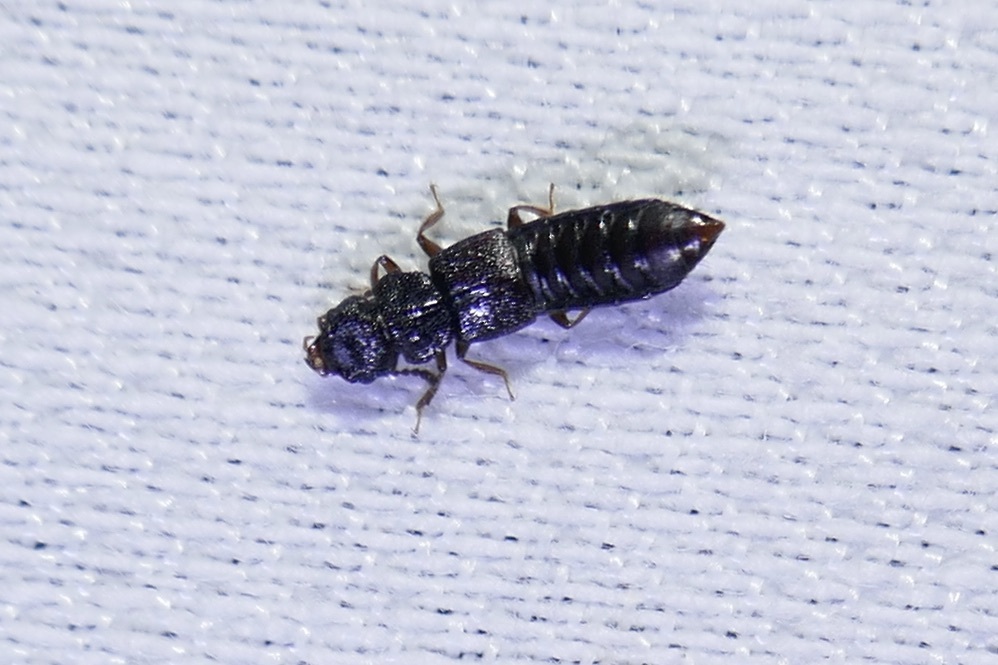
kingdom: Animalia
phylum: Arthropoda
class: Insecta
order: Coleoptera
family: Staphylinidae
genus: Anotylus
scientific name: Anotylus rugosus
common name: Rove beetle
